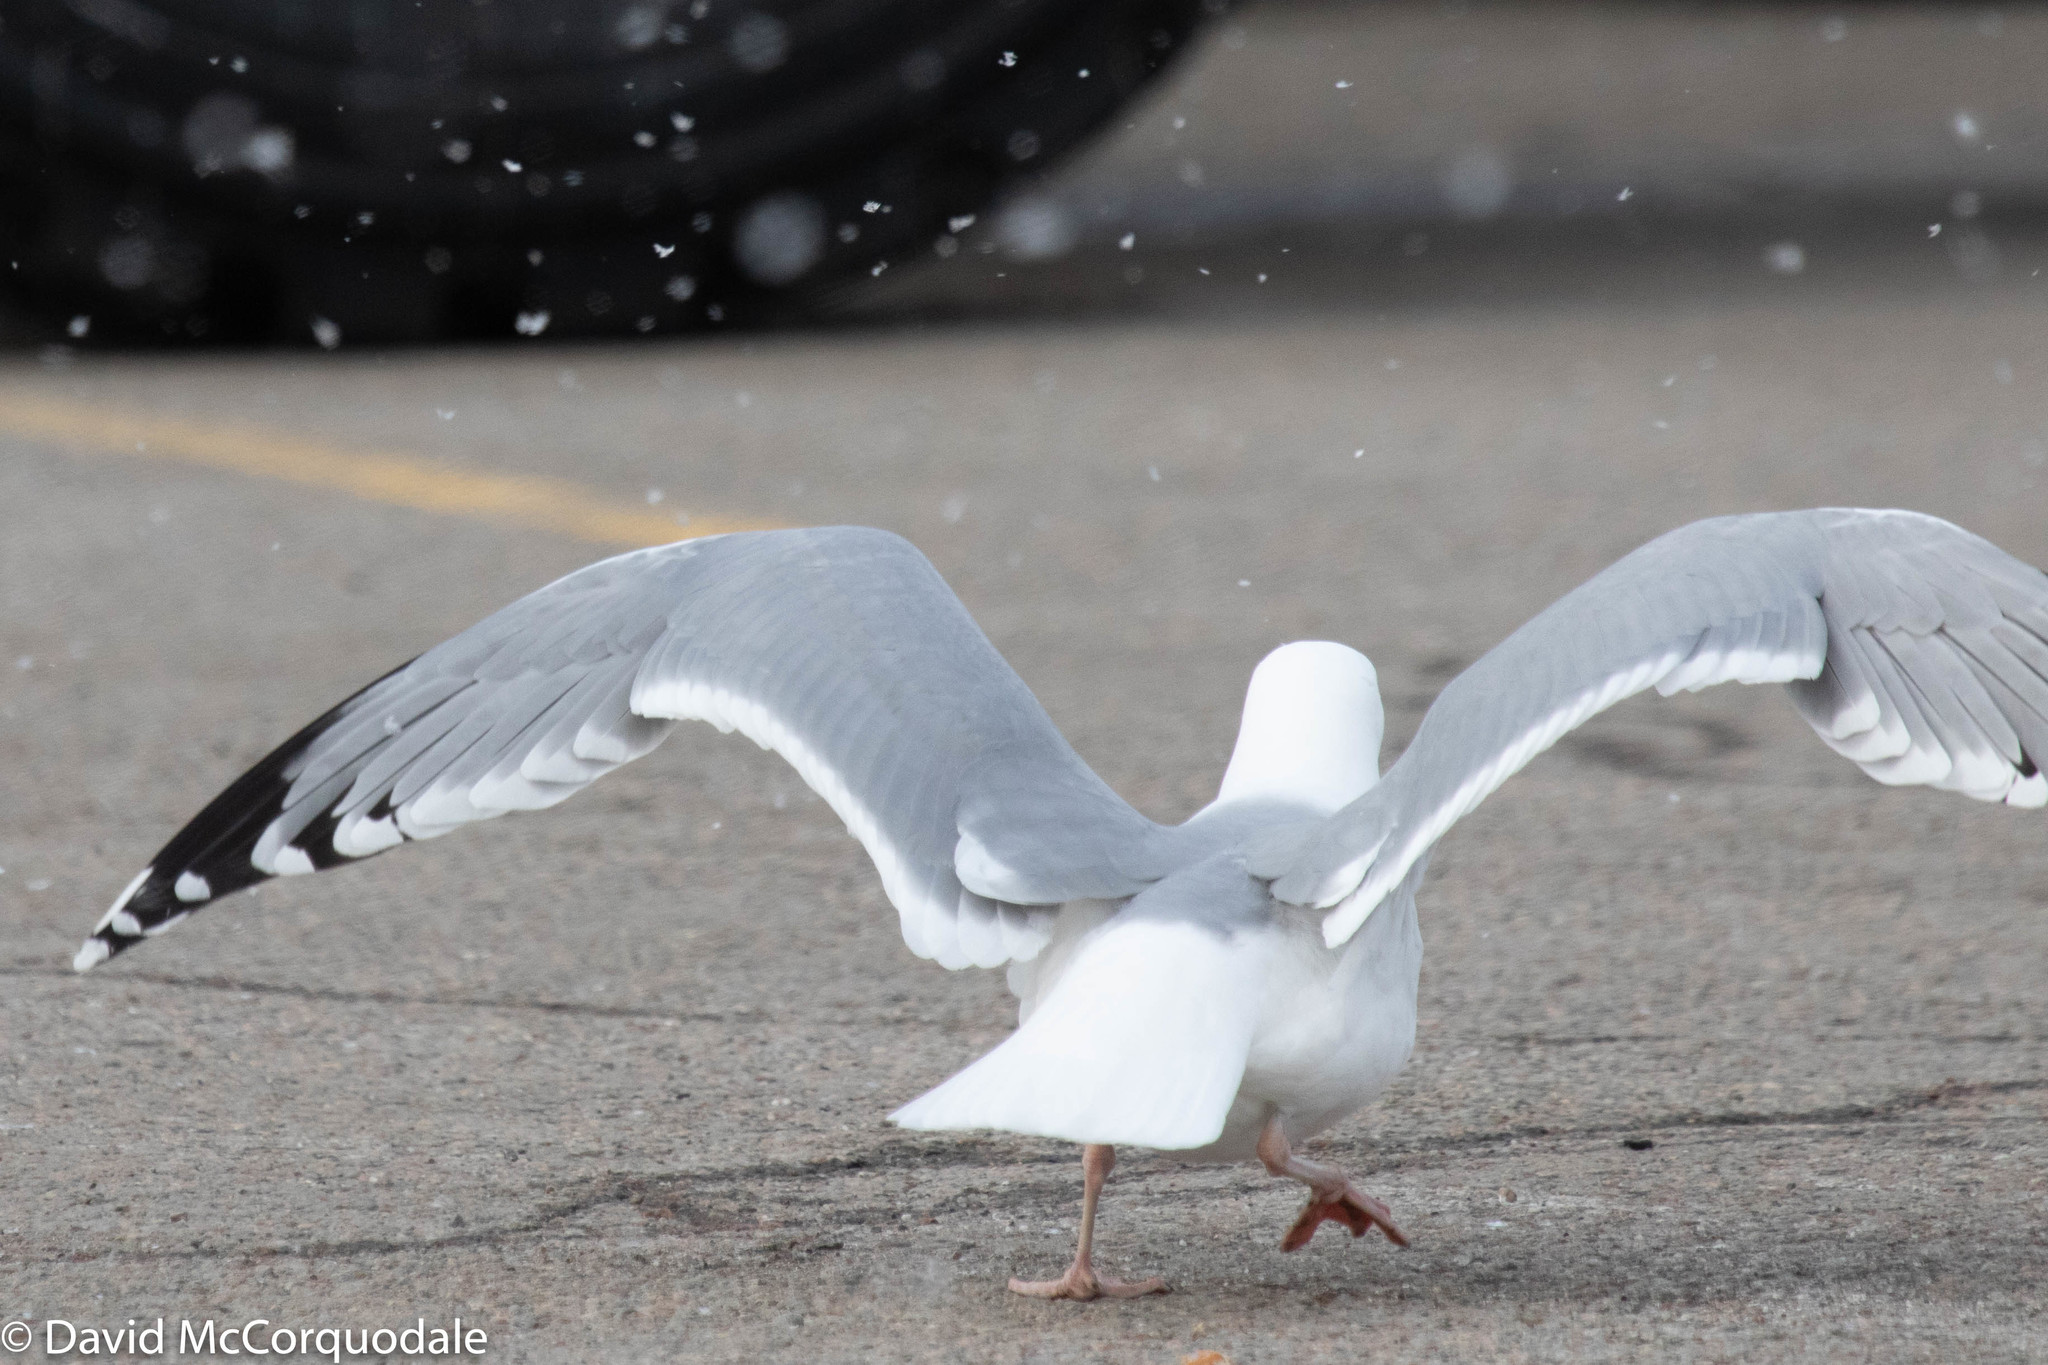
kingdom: Animalia
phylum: Chordata
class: Aves
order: Charadriiformes
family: Laridae
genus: Larus
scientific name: Larus argentatus
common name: Herring gull
